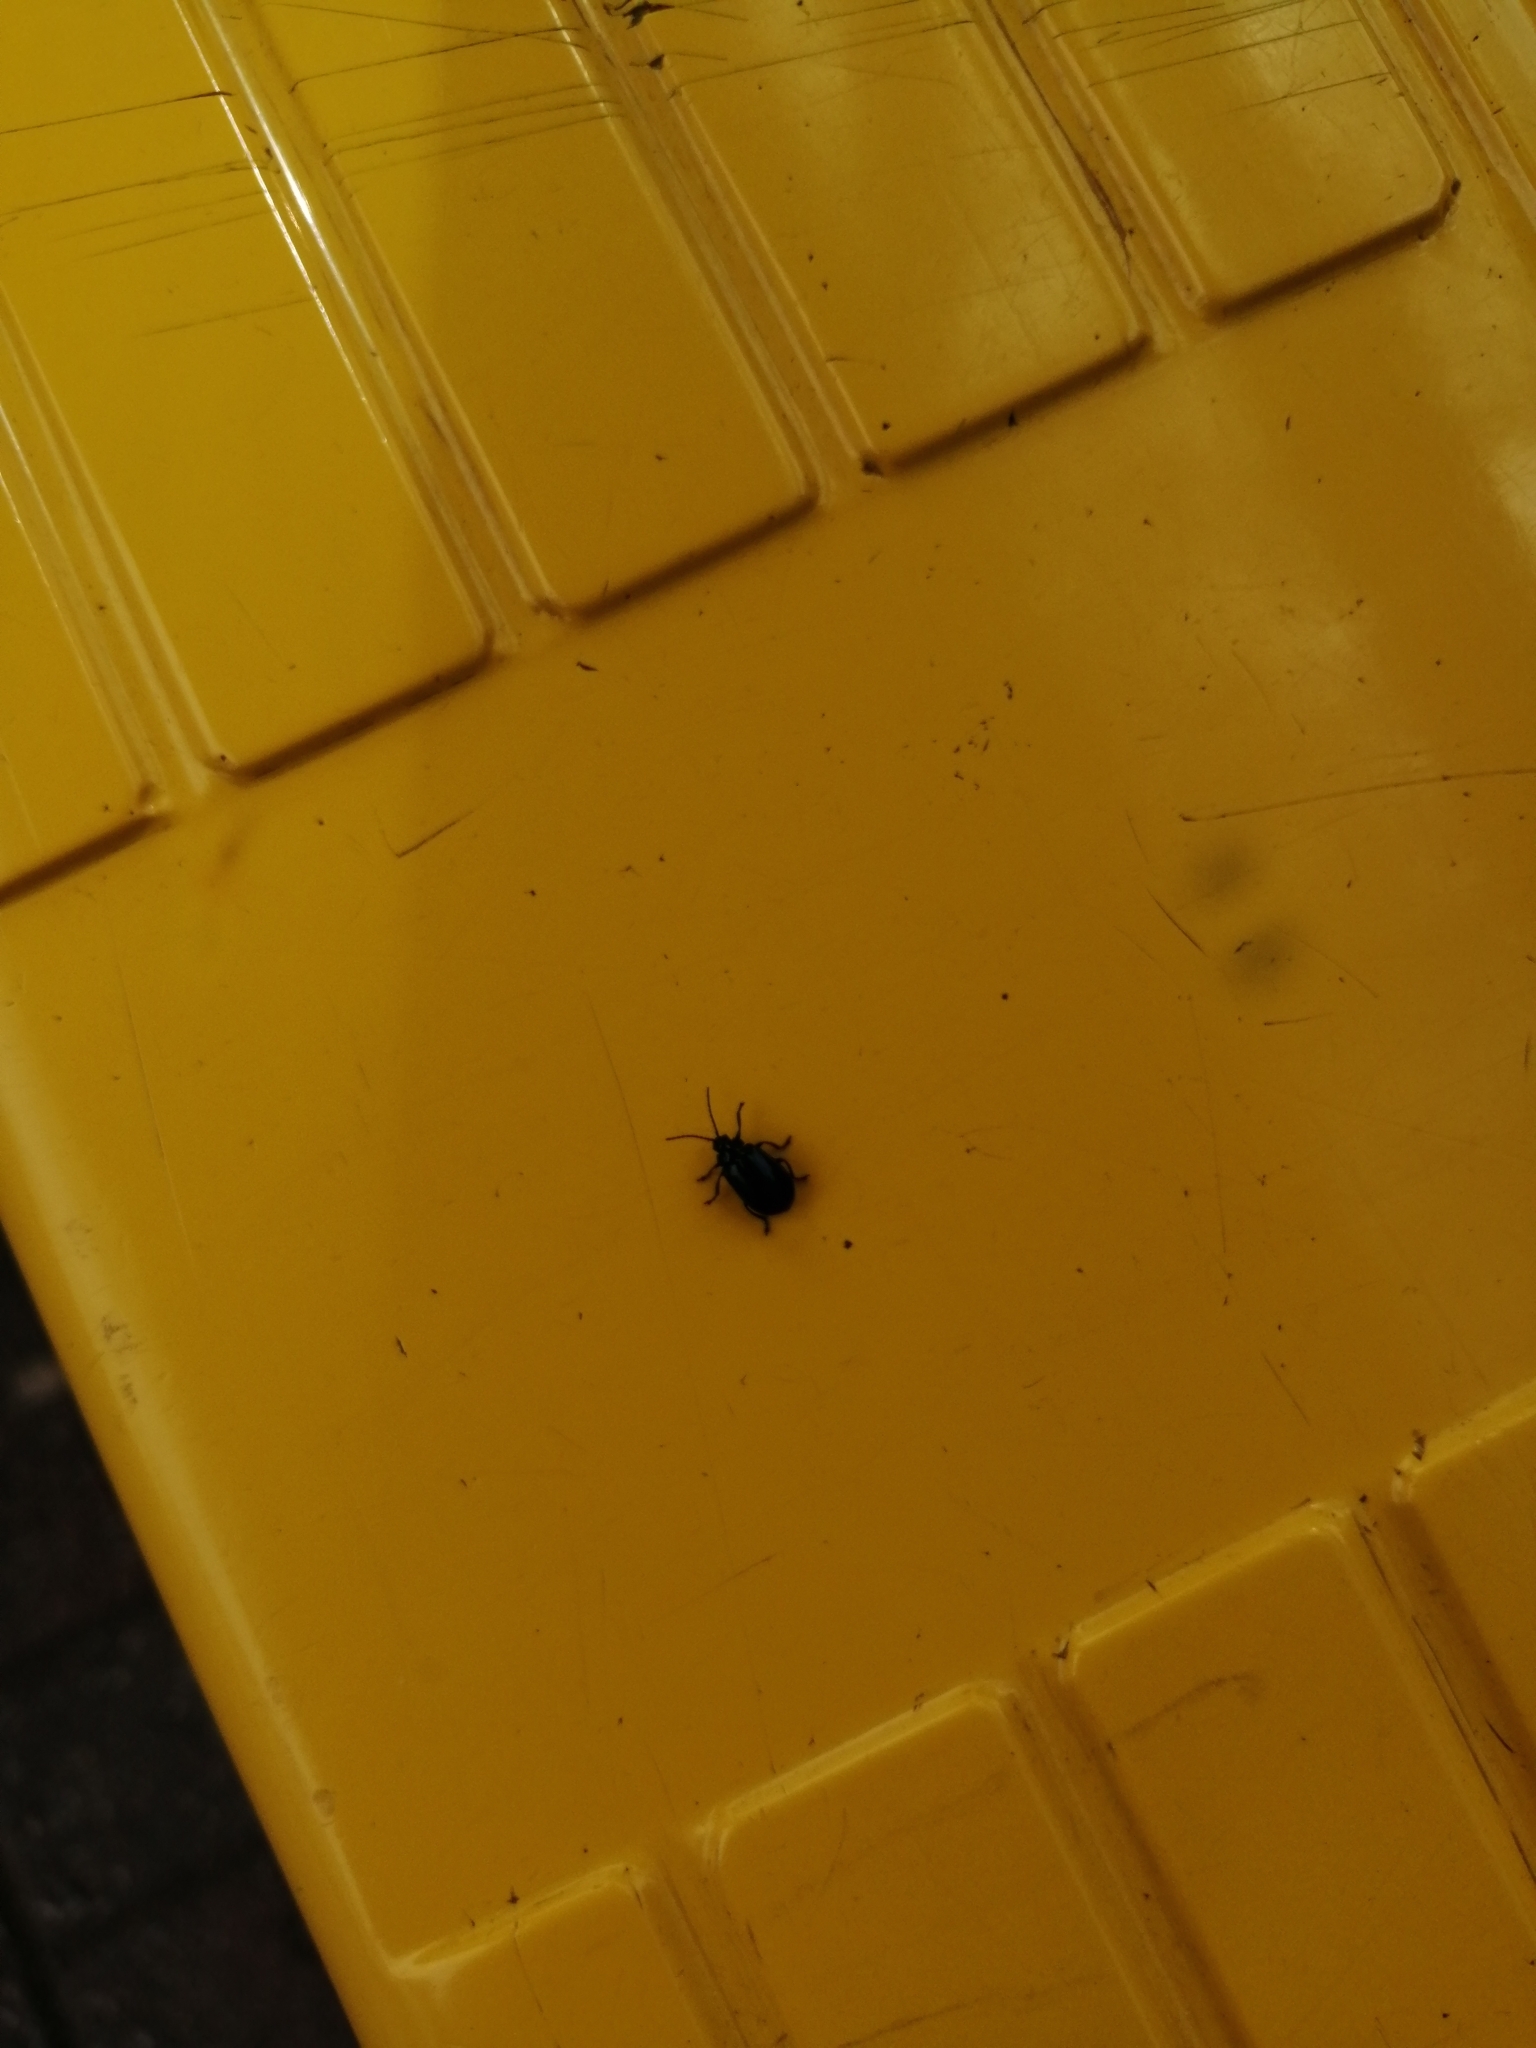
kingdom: Animalia
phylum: Arthropoda
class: Insecta
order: Coleoptera
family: Chrysomelidae
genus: Agelastica
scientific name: Agelastica alni
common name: Alder leaf beetle
